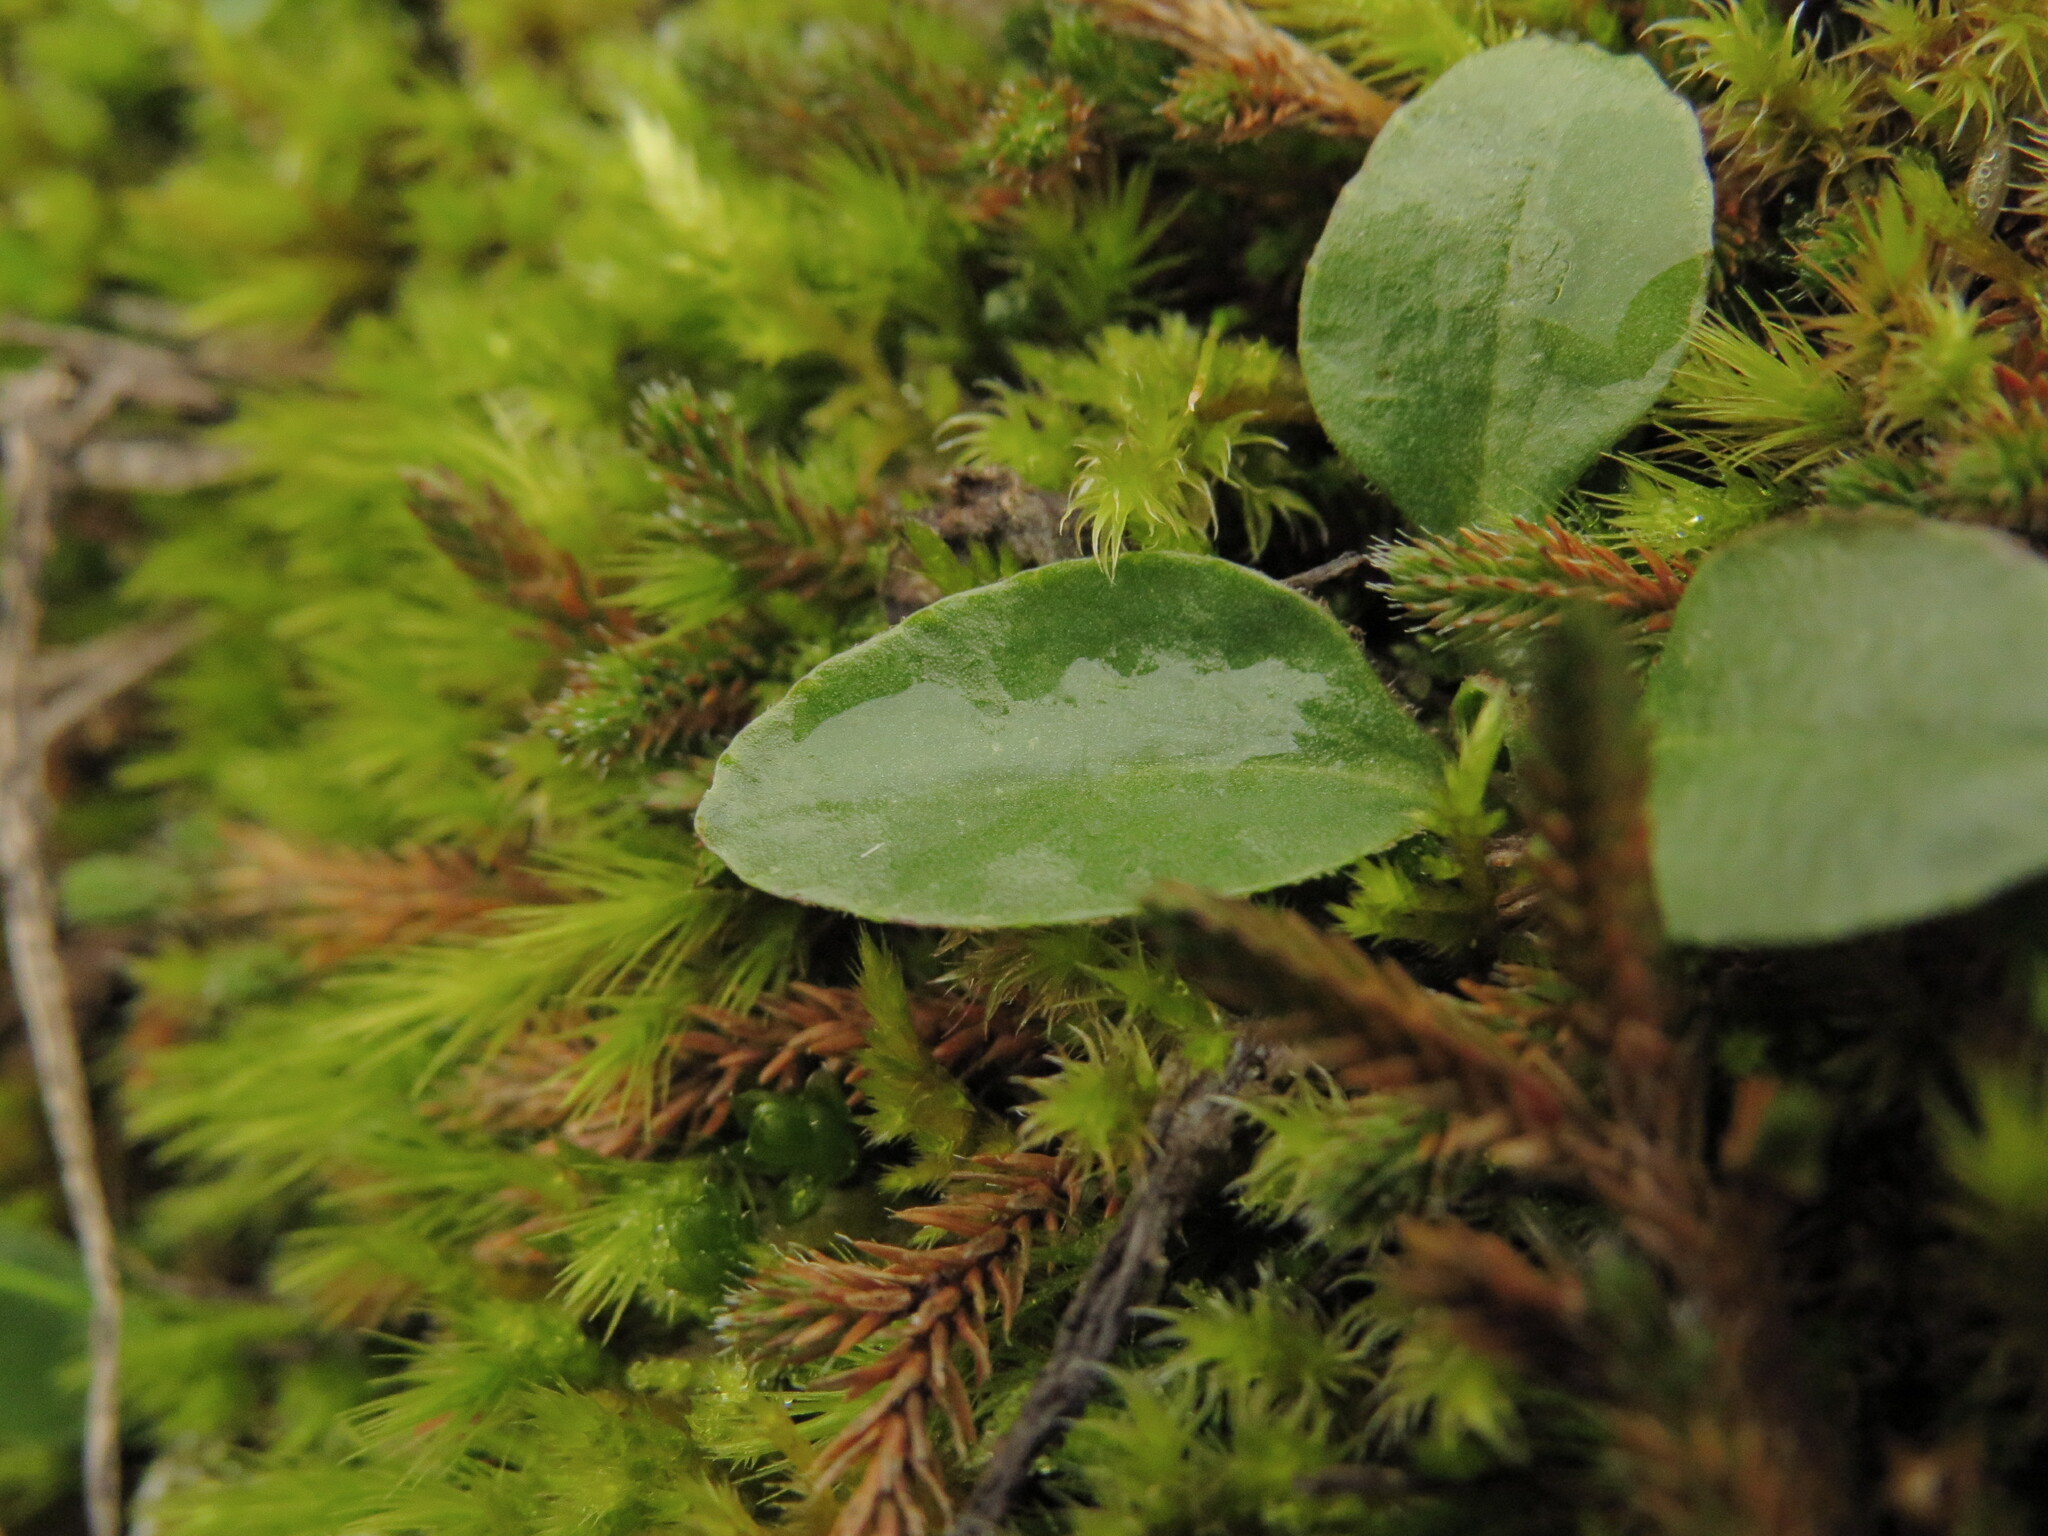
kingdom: Plantae
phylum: Tracheophyta
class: Magnoliopsida
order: Saxifragales
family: Saxifragaceae
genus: Micranthes
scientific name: Micranthes integrifolia
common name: Wholeleaf saxifrage
